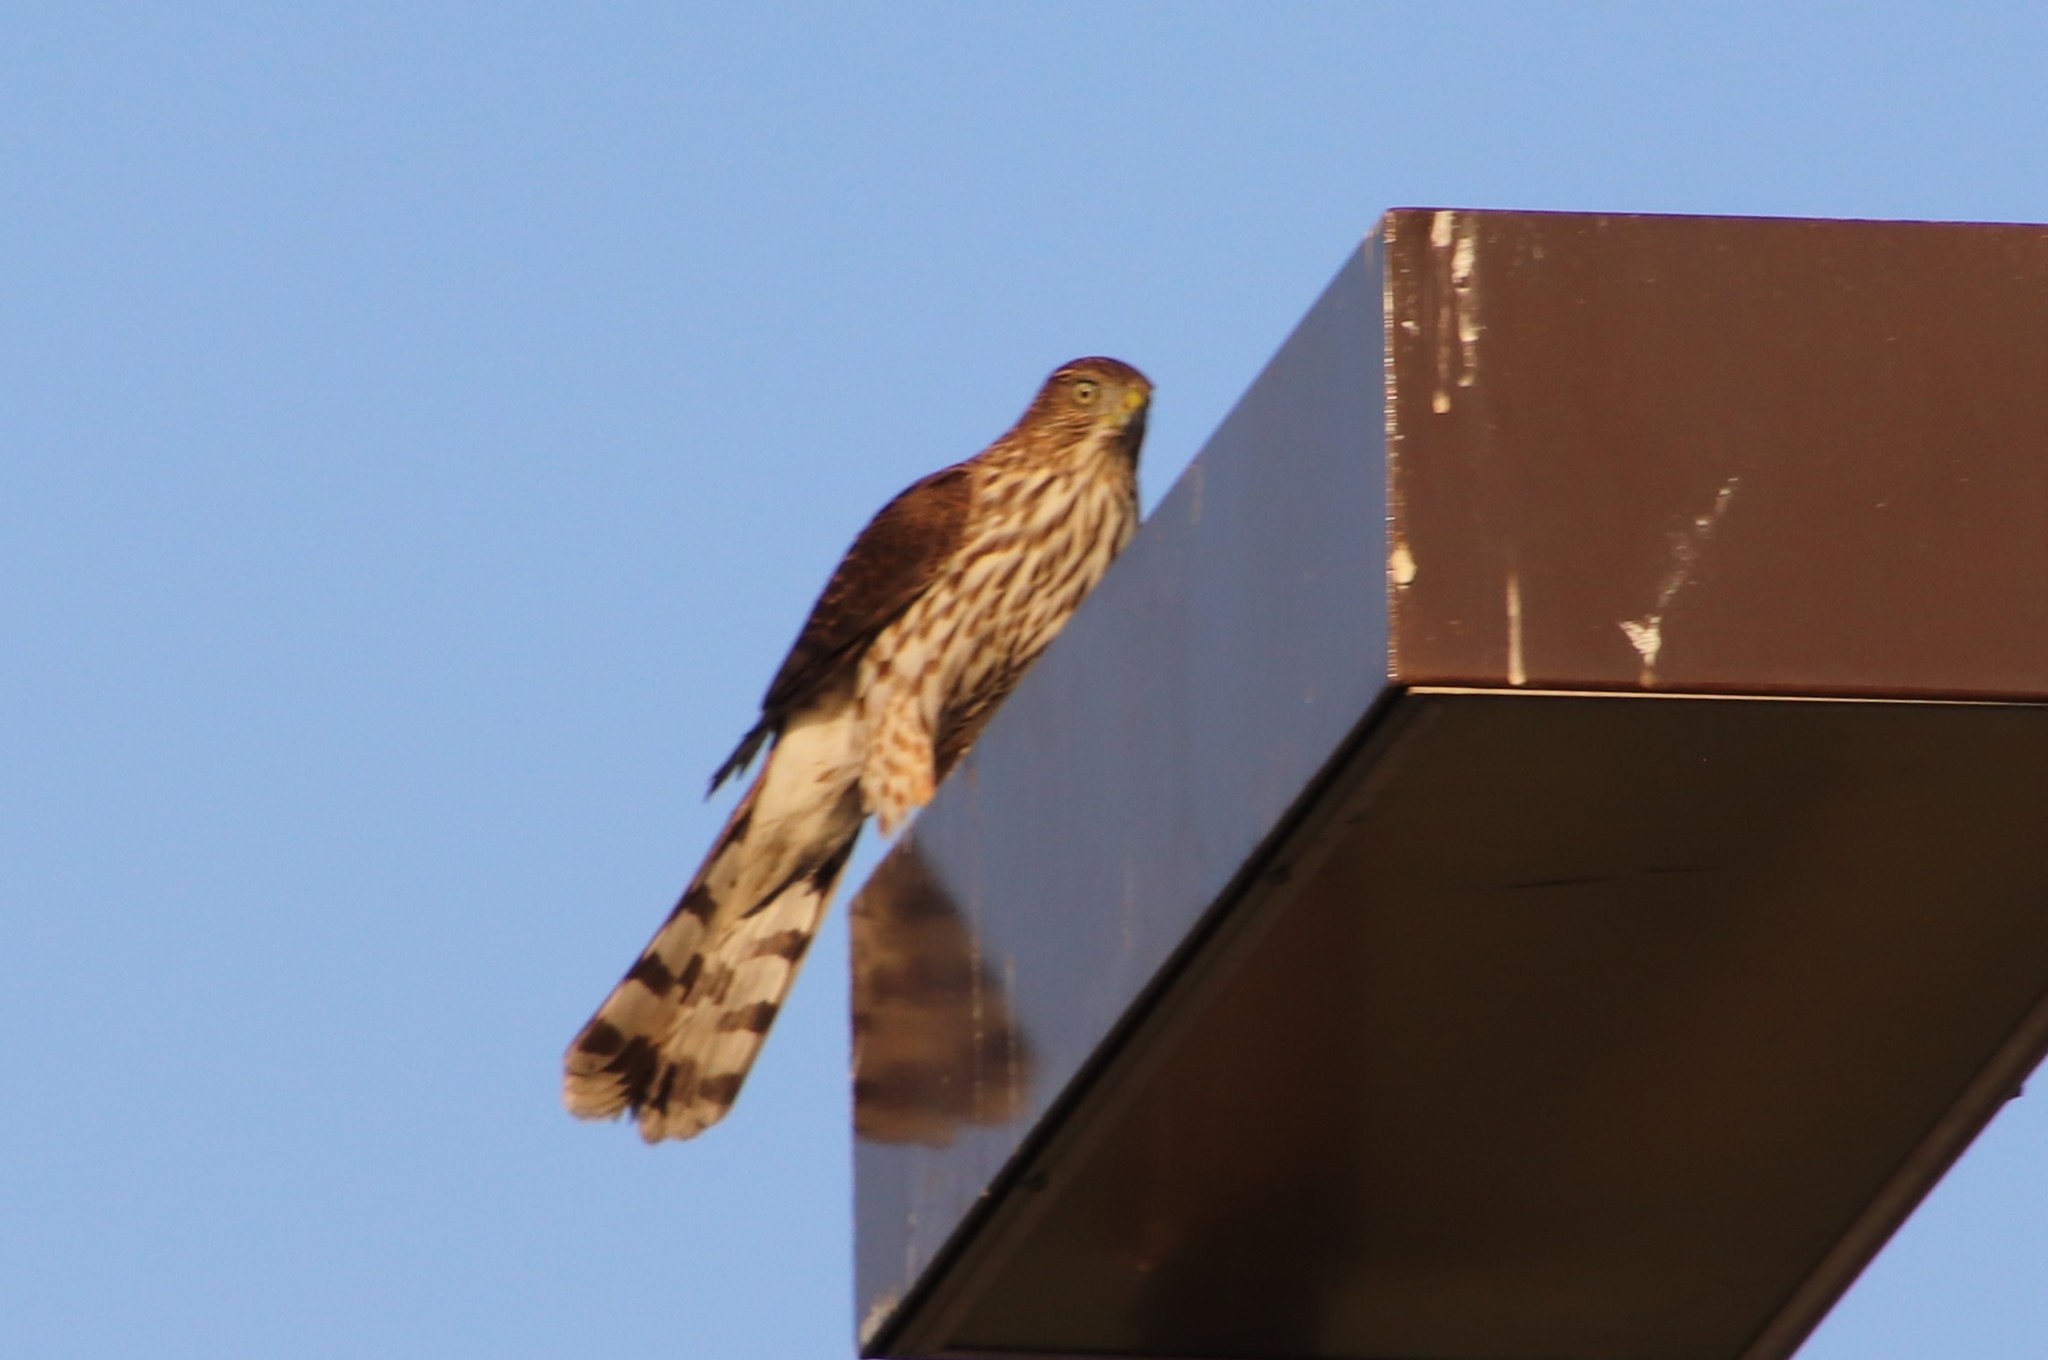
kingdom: Animalia
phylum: Chordata
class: Aves
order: Accipitriformes
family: Accipitridae
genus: Accipiter
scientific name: Accipiter cooperii
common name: Cooper's hawk
